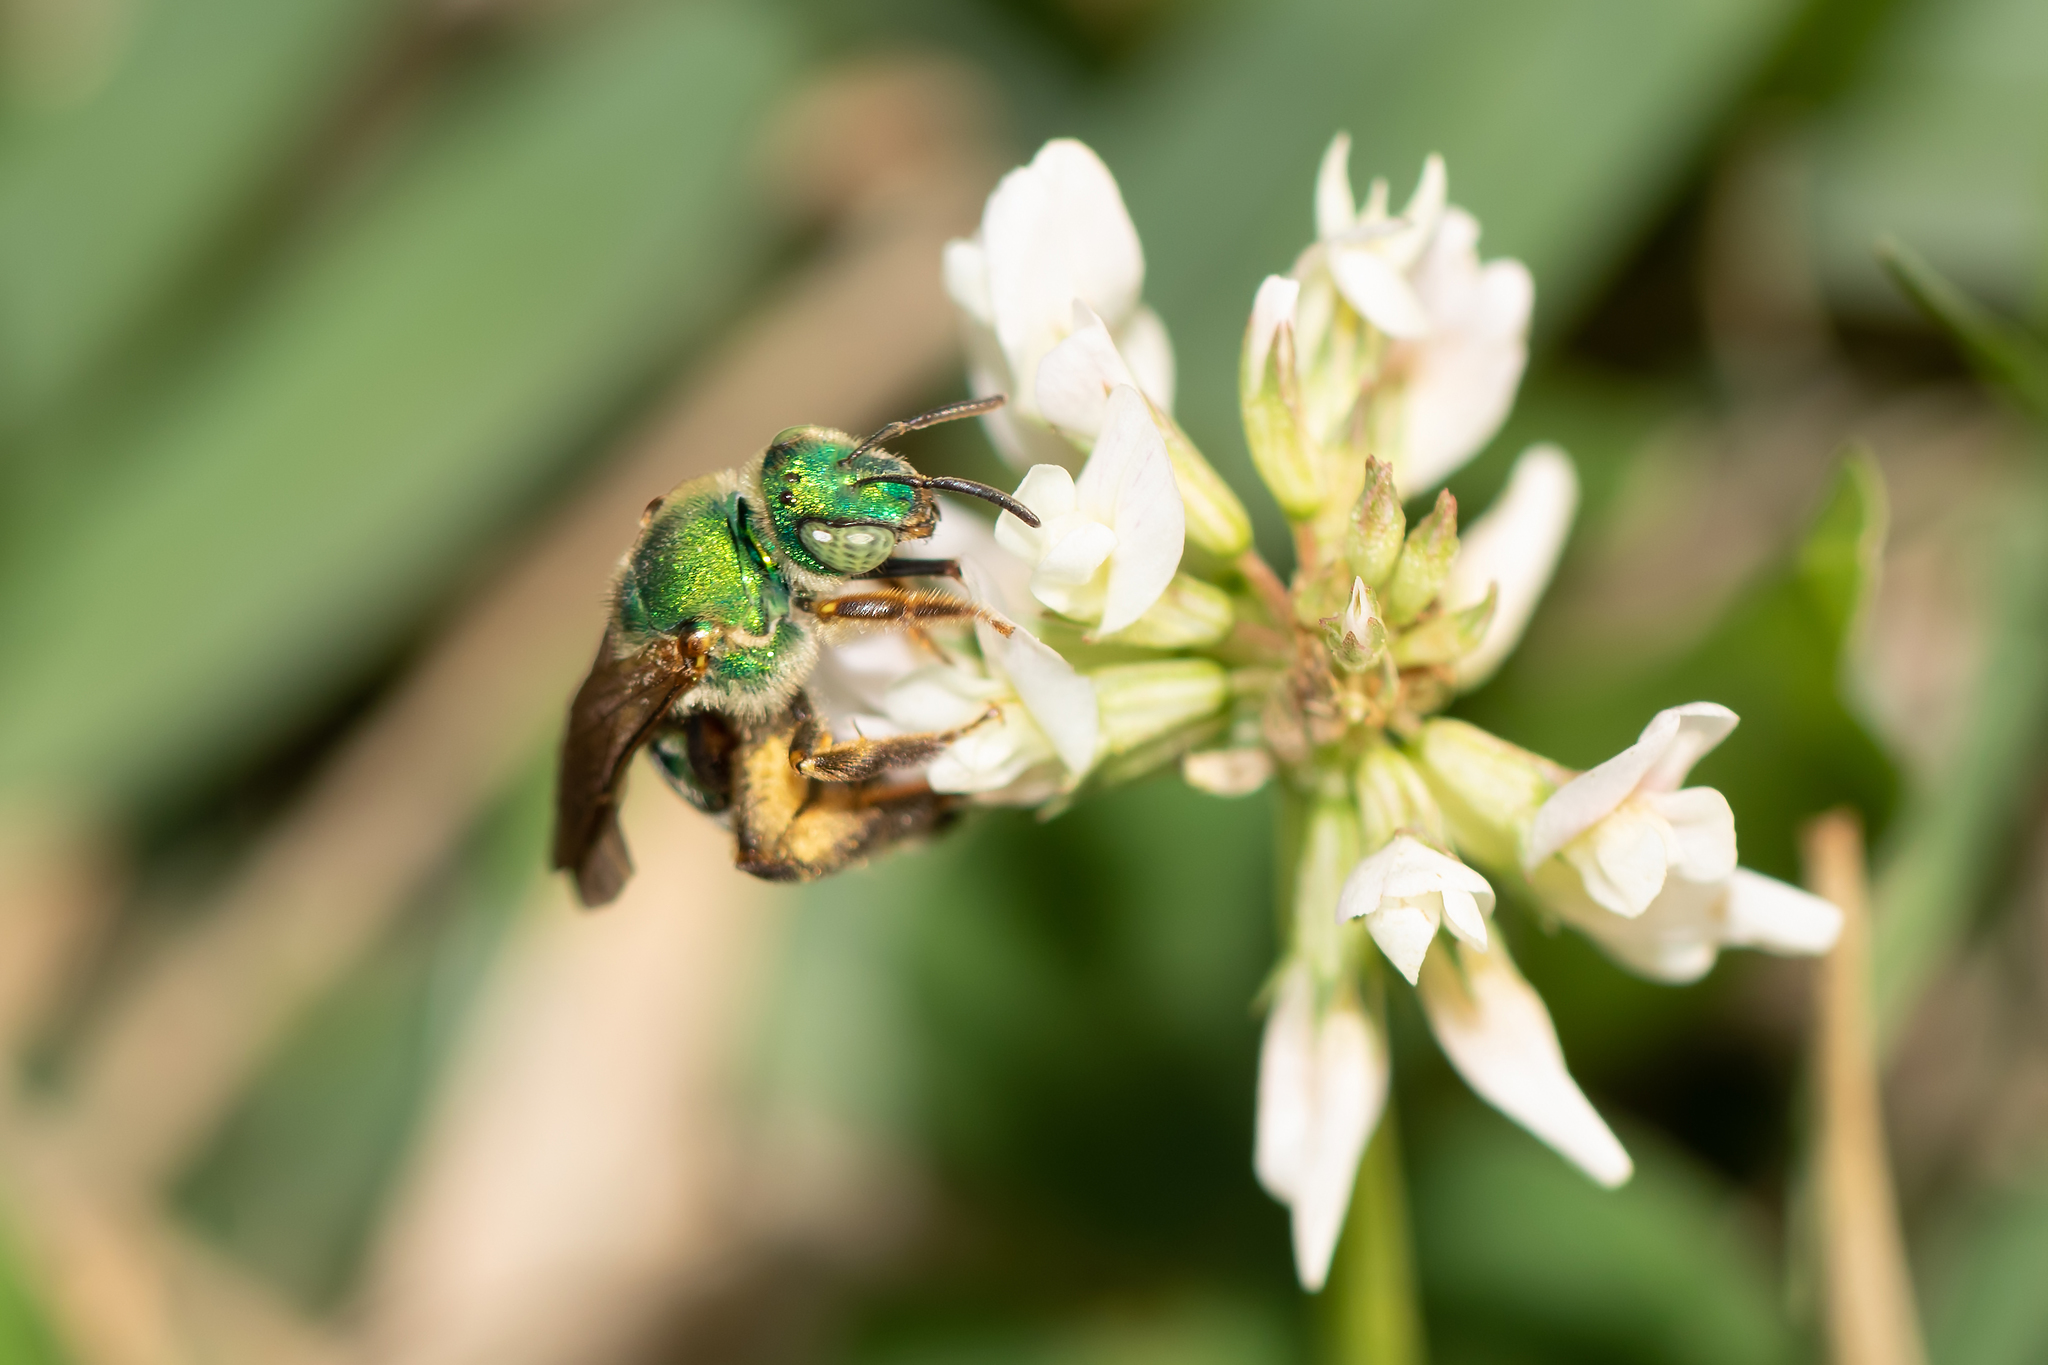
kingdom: Animalia
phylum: Arthropoda
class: Insecta
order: Hymenoptera
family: Halictidae
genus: Agapostemon
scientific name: Agapostemon splendens
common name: Brown-winged striped sweat bee
